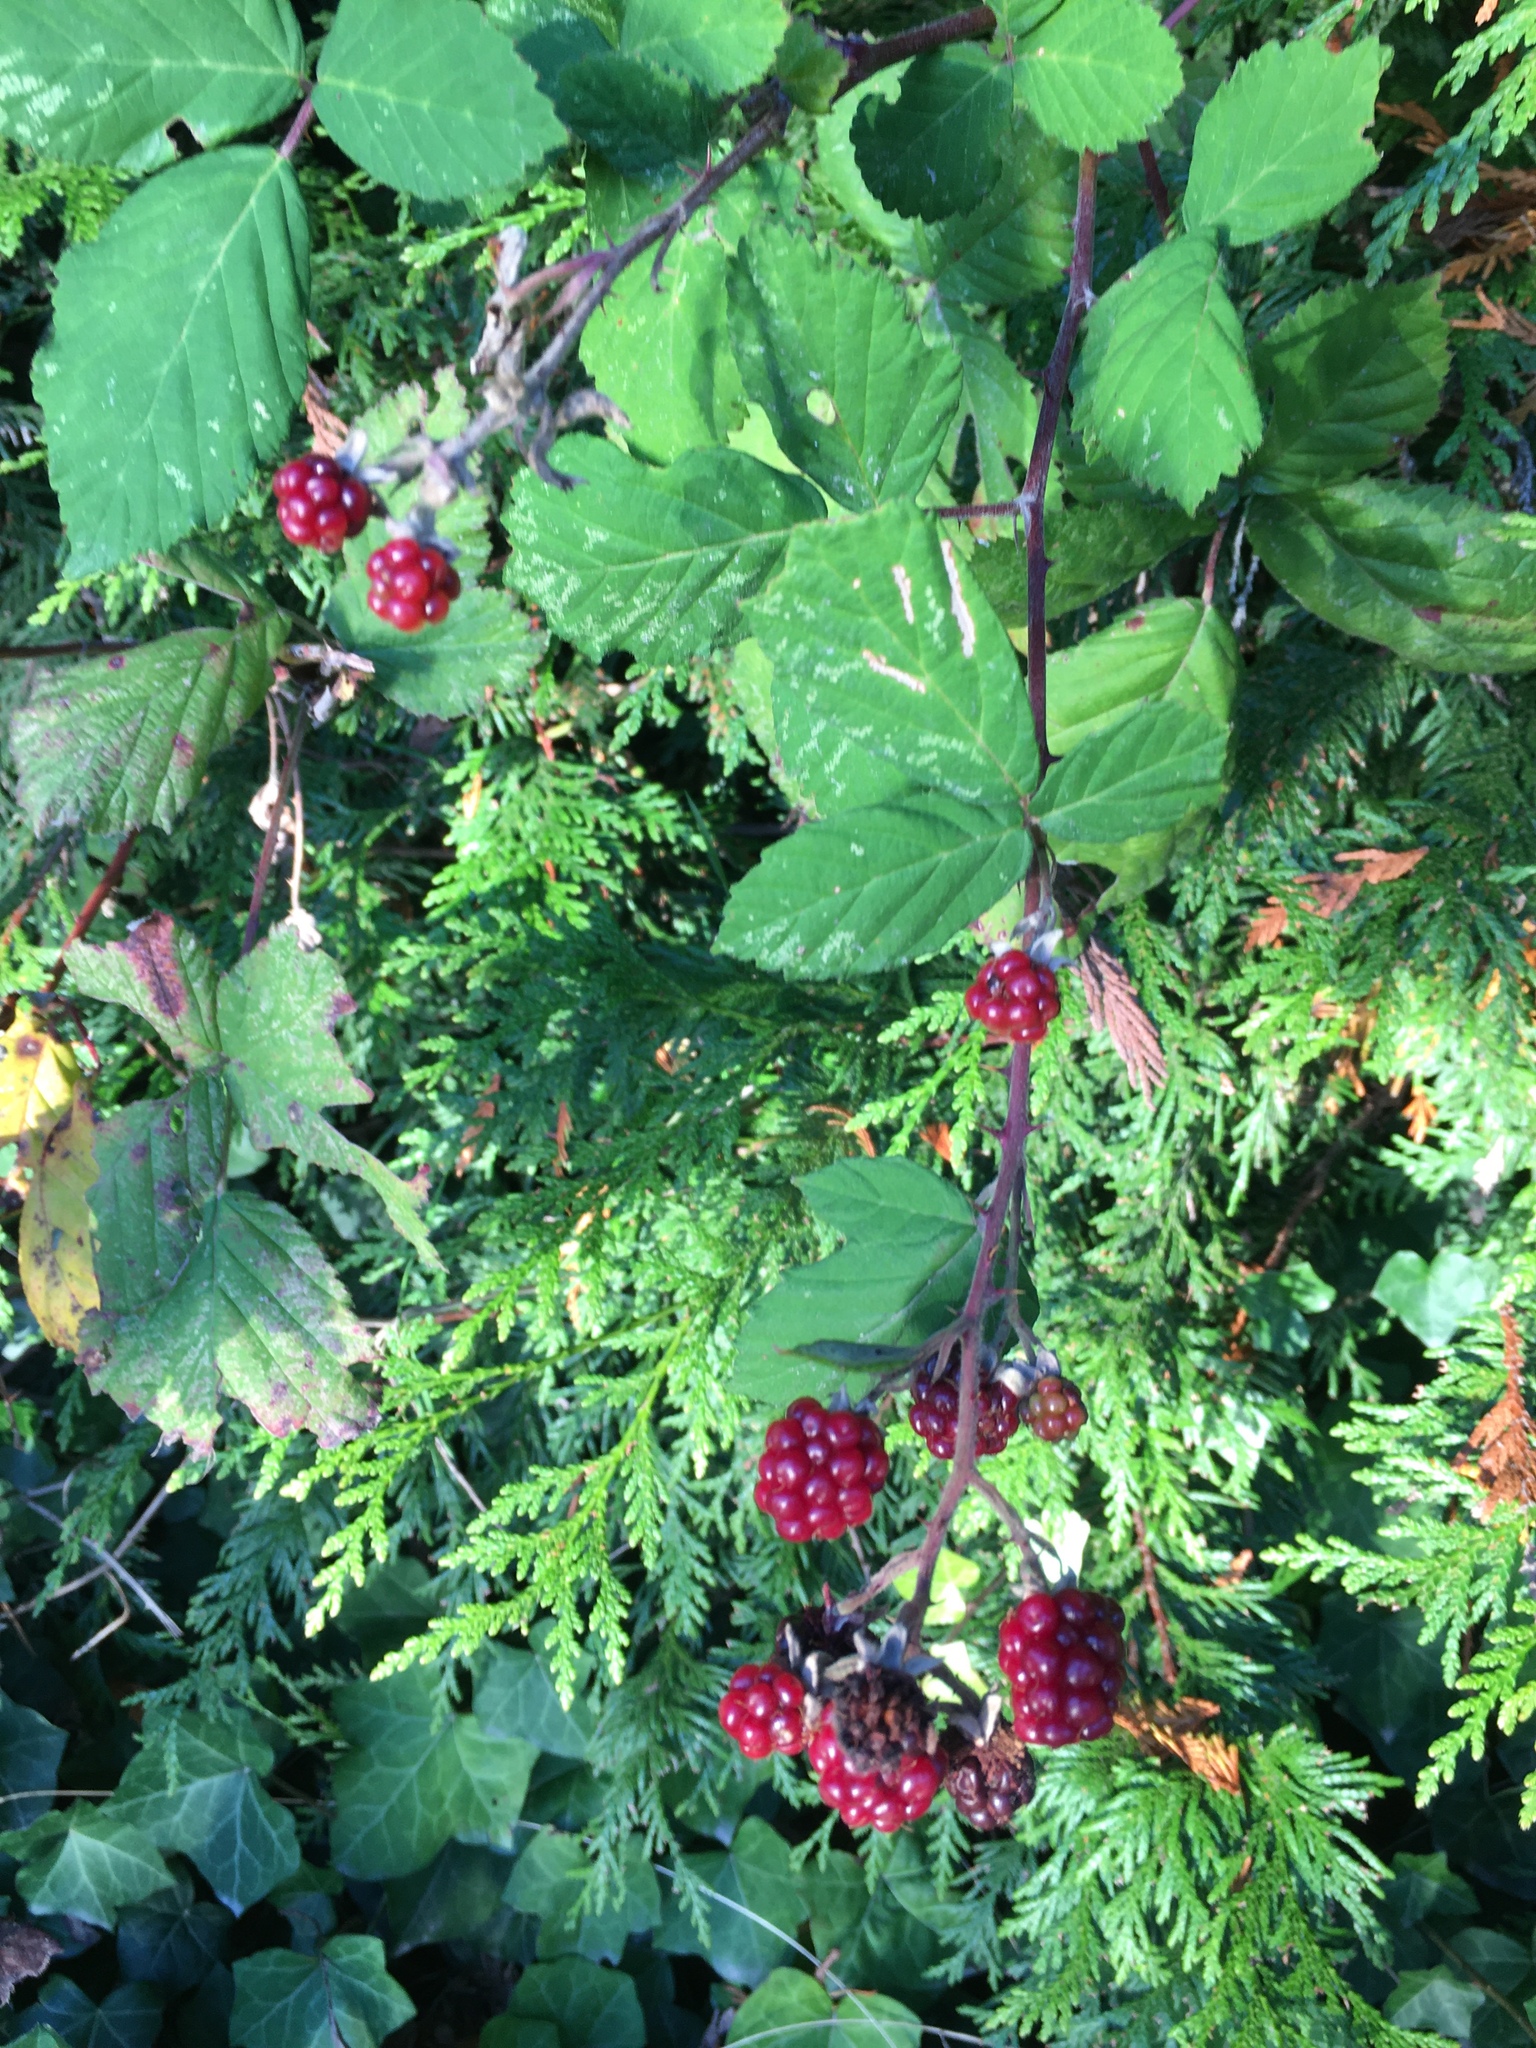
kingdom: Plantae
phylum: Tracheophyta
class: Magnoliopsida
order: Rosales
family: Rosaceae
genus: Rubus
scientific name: Rubus bifrons
